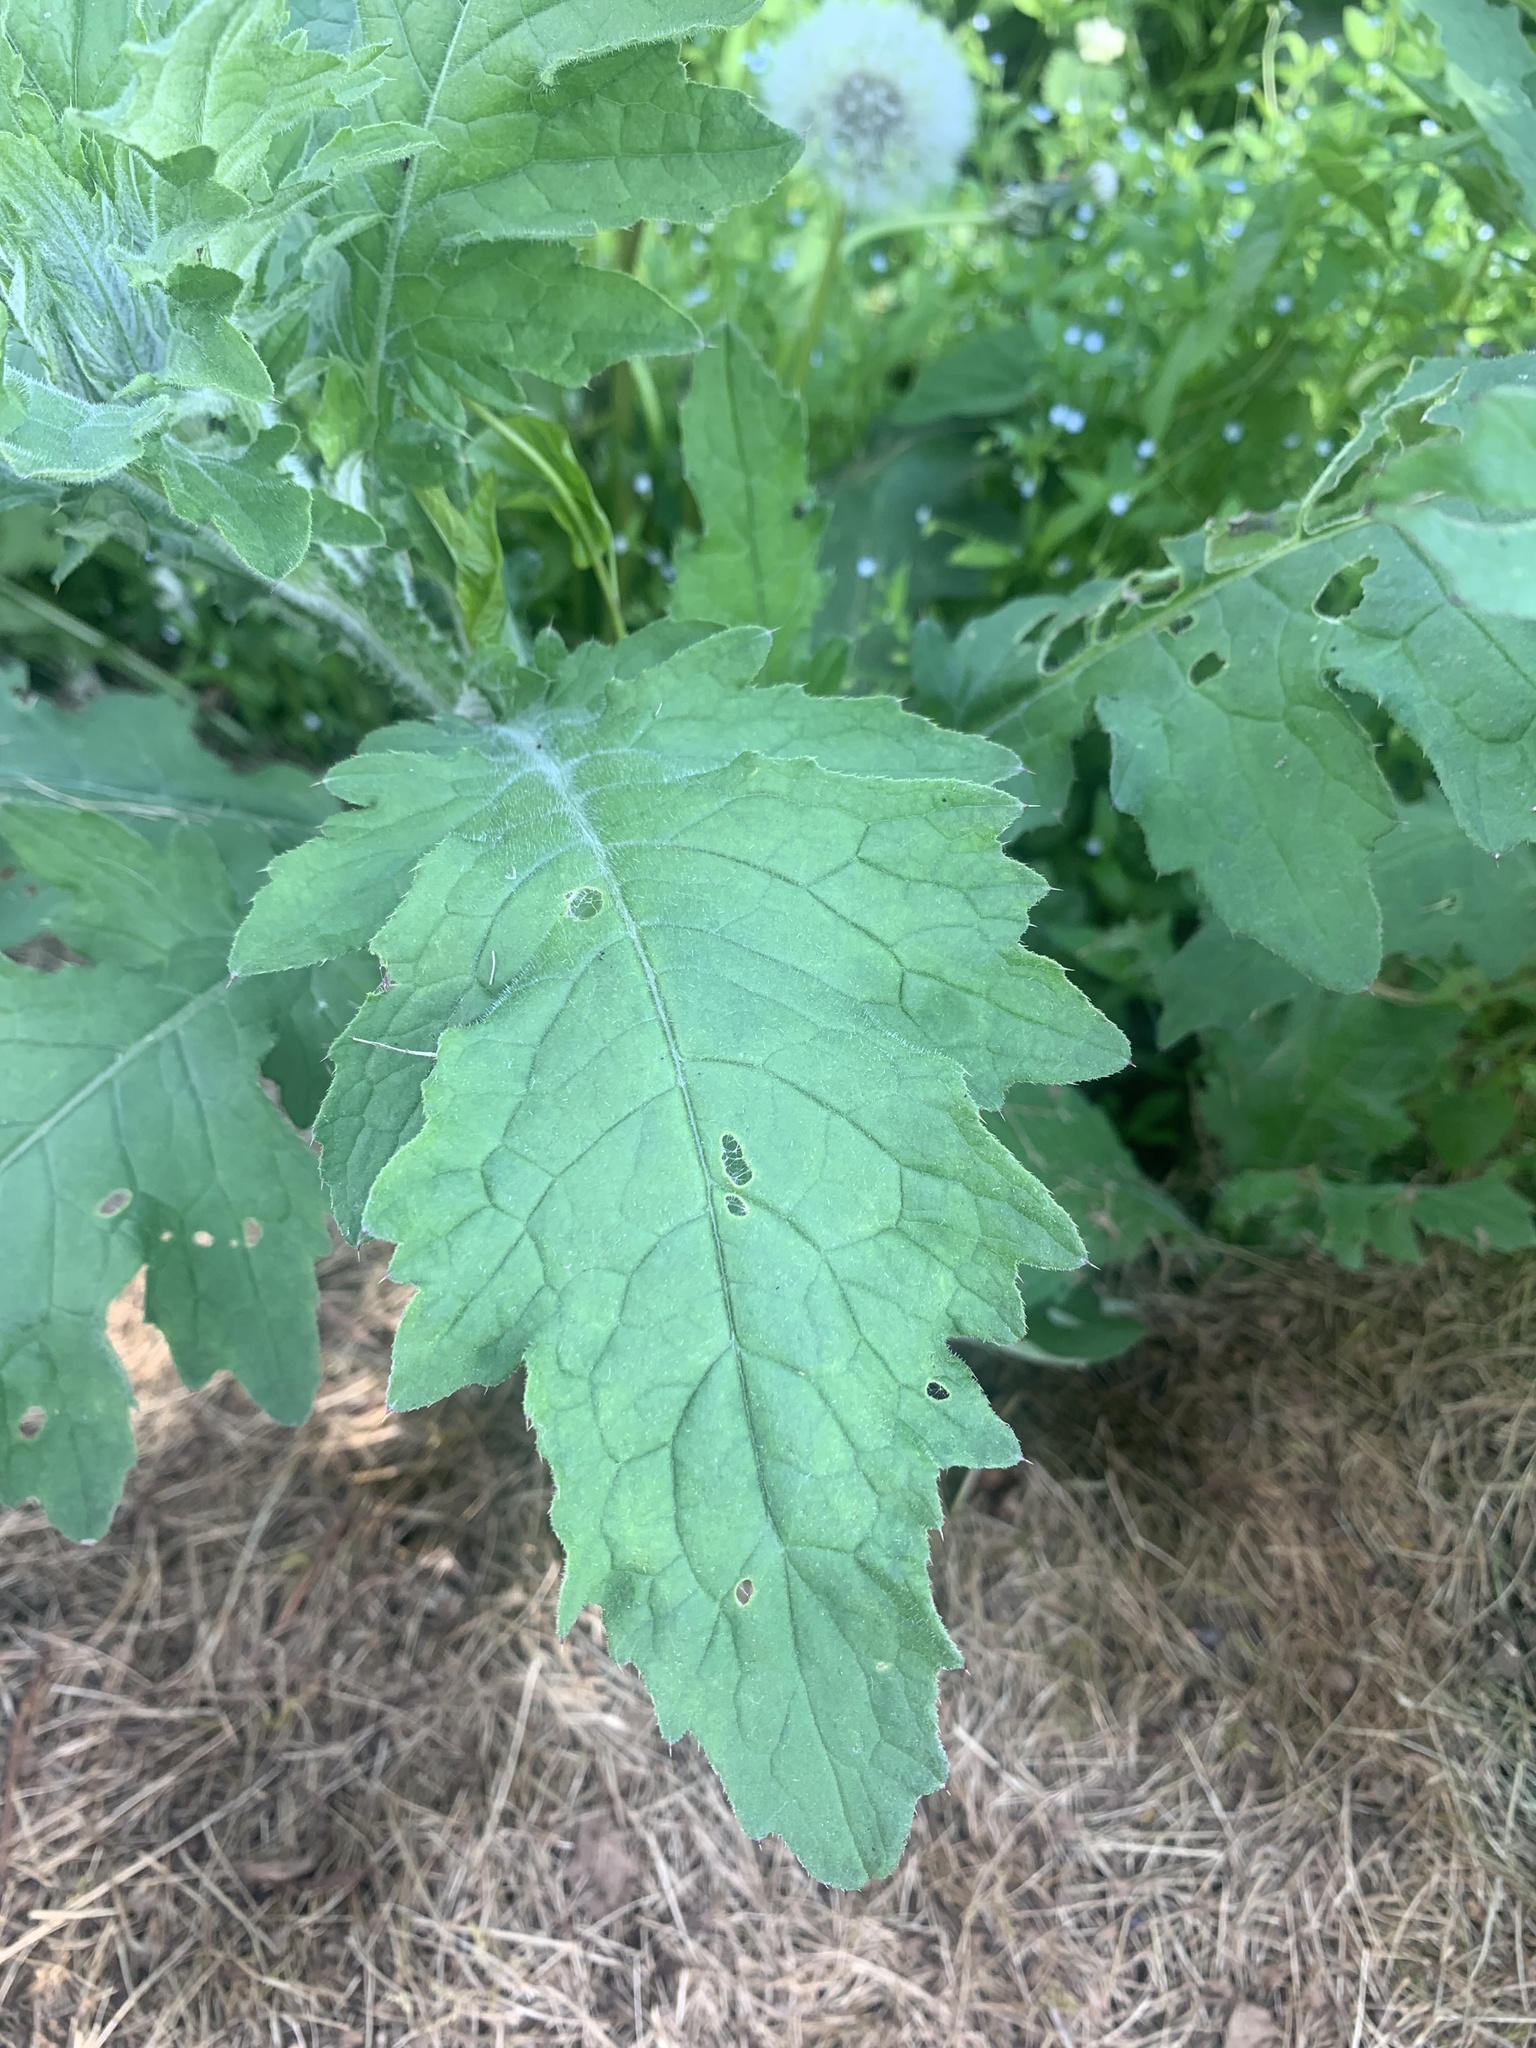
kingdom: Plantae
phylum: Tracheophyta
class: Magnoliopsida
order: Asterales
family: Asteraceae
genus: Carduus
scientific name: Carduus crispus
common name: Welted thistle
